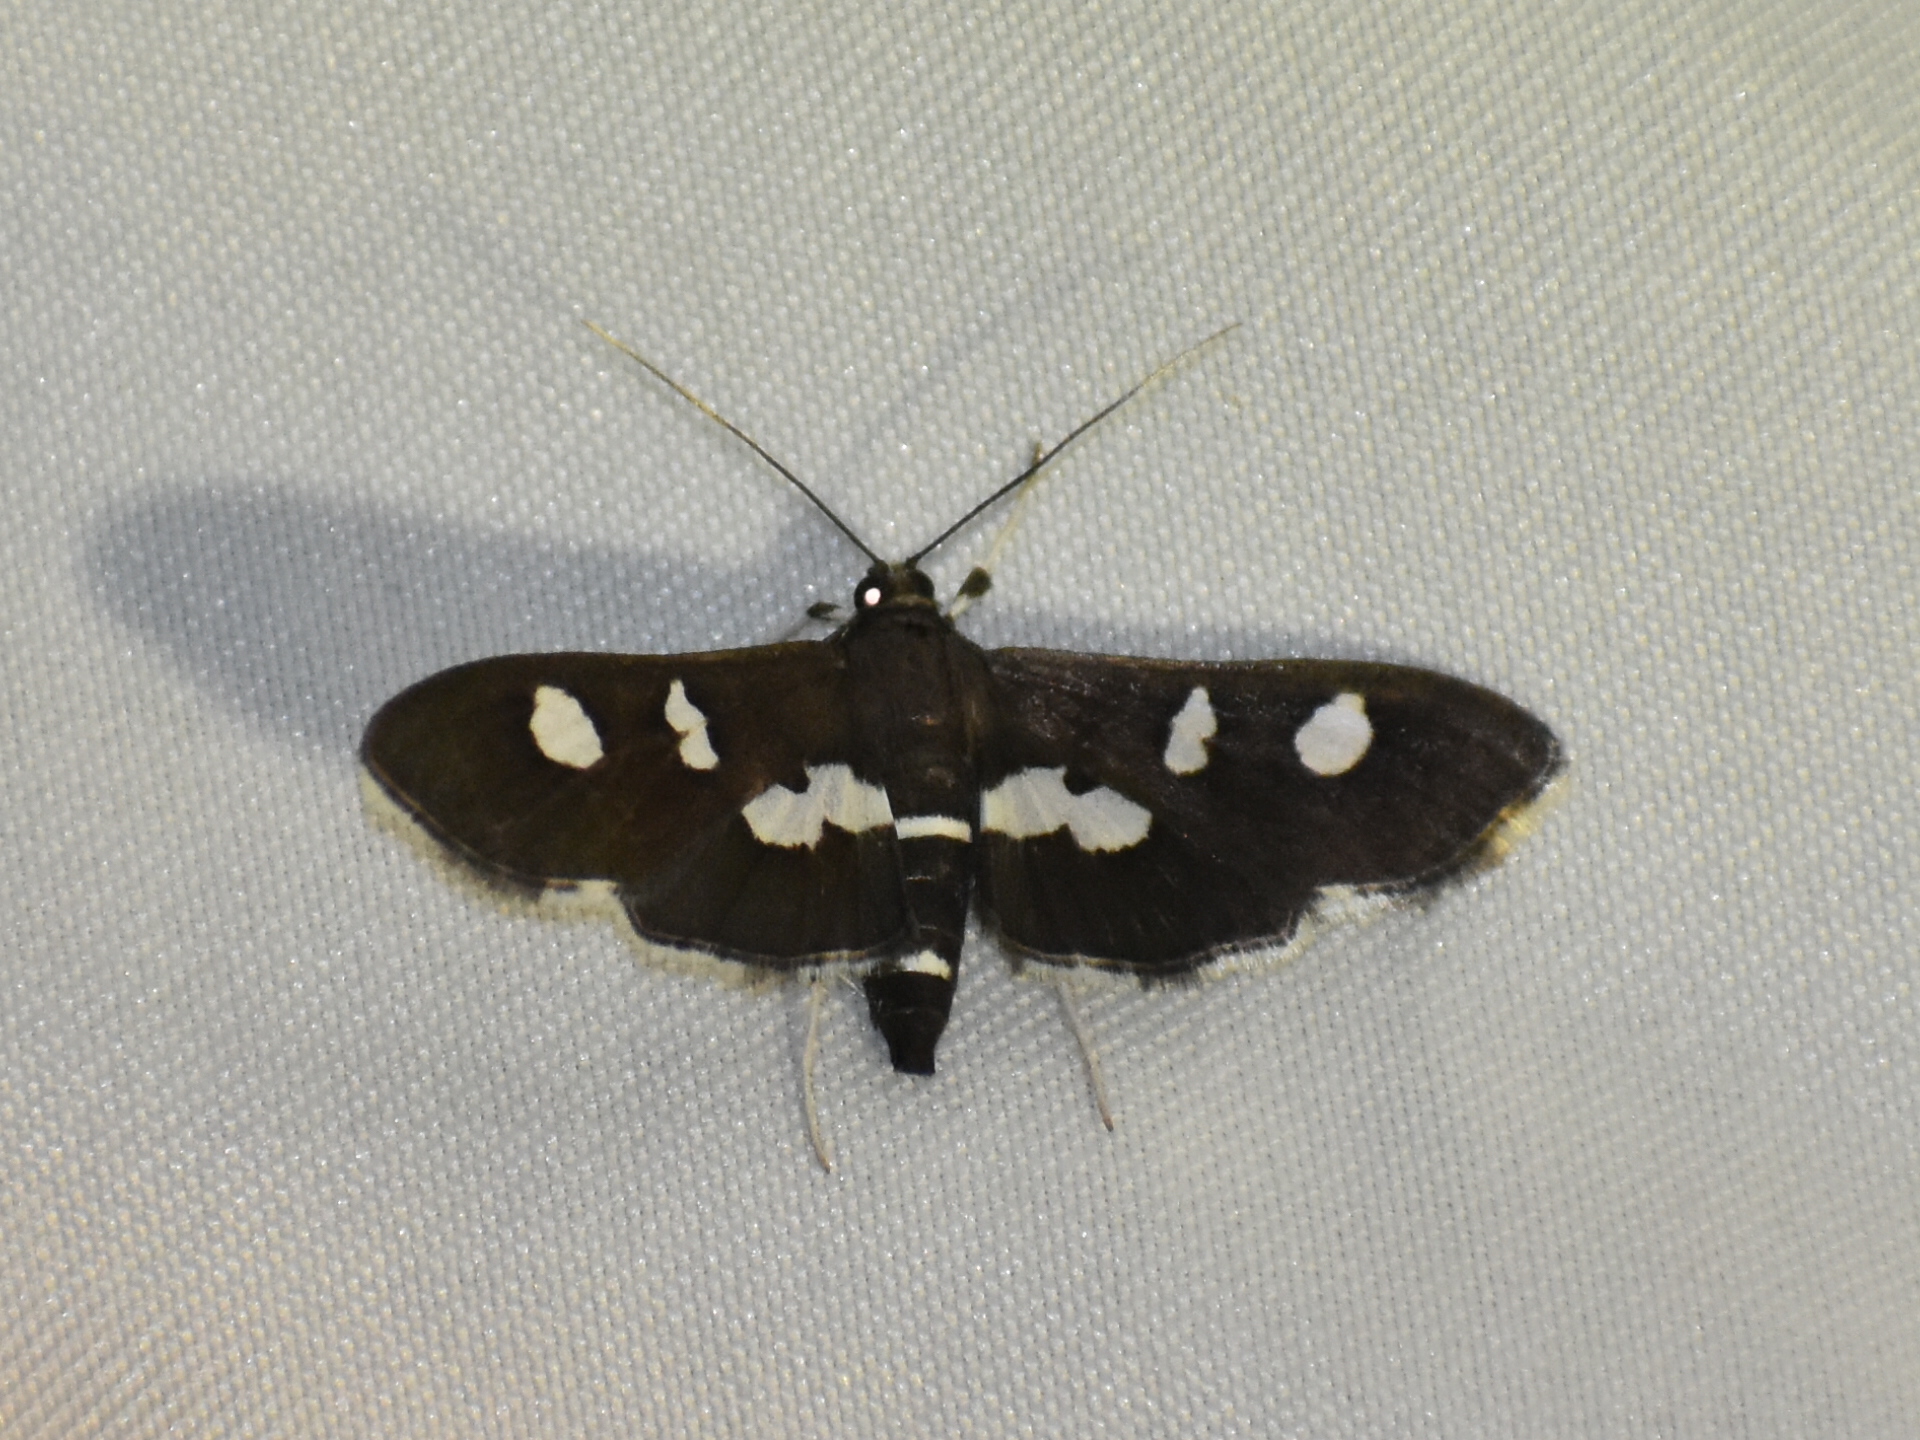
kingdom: Animalia
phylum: Arthropoda
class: Insecta
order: Lepidoptera
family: Crambidae
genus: Desmia
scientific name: Desmia funeralis
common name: Grape leaf folder moth
